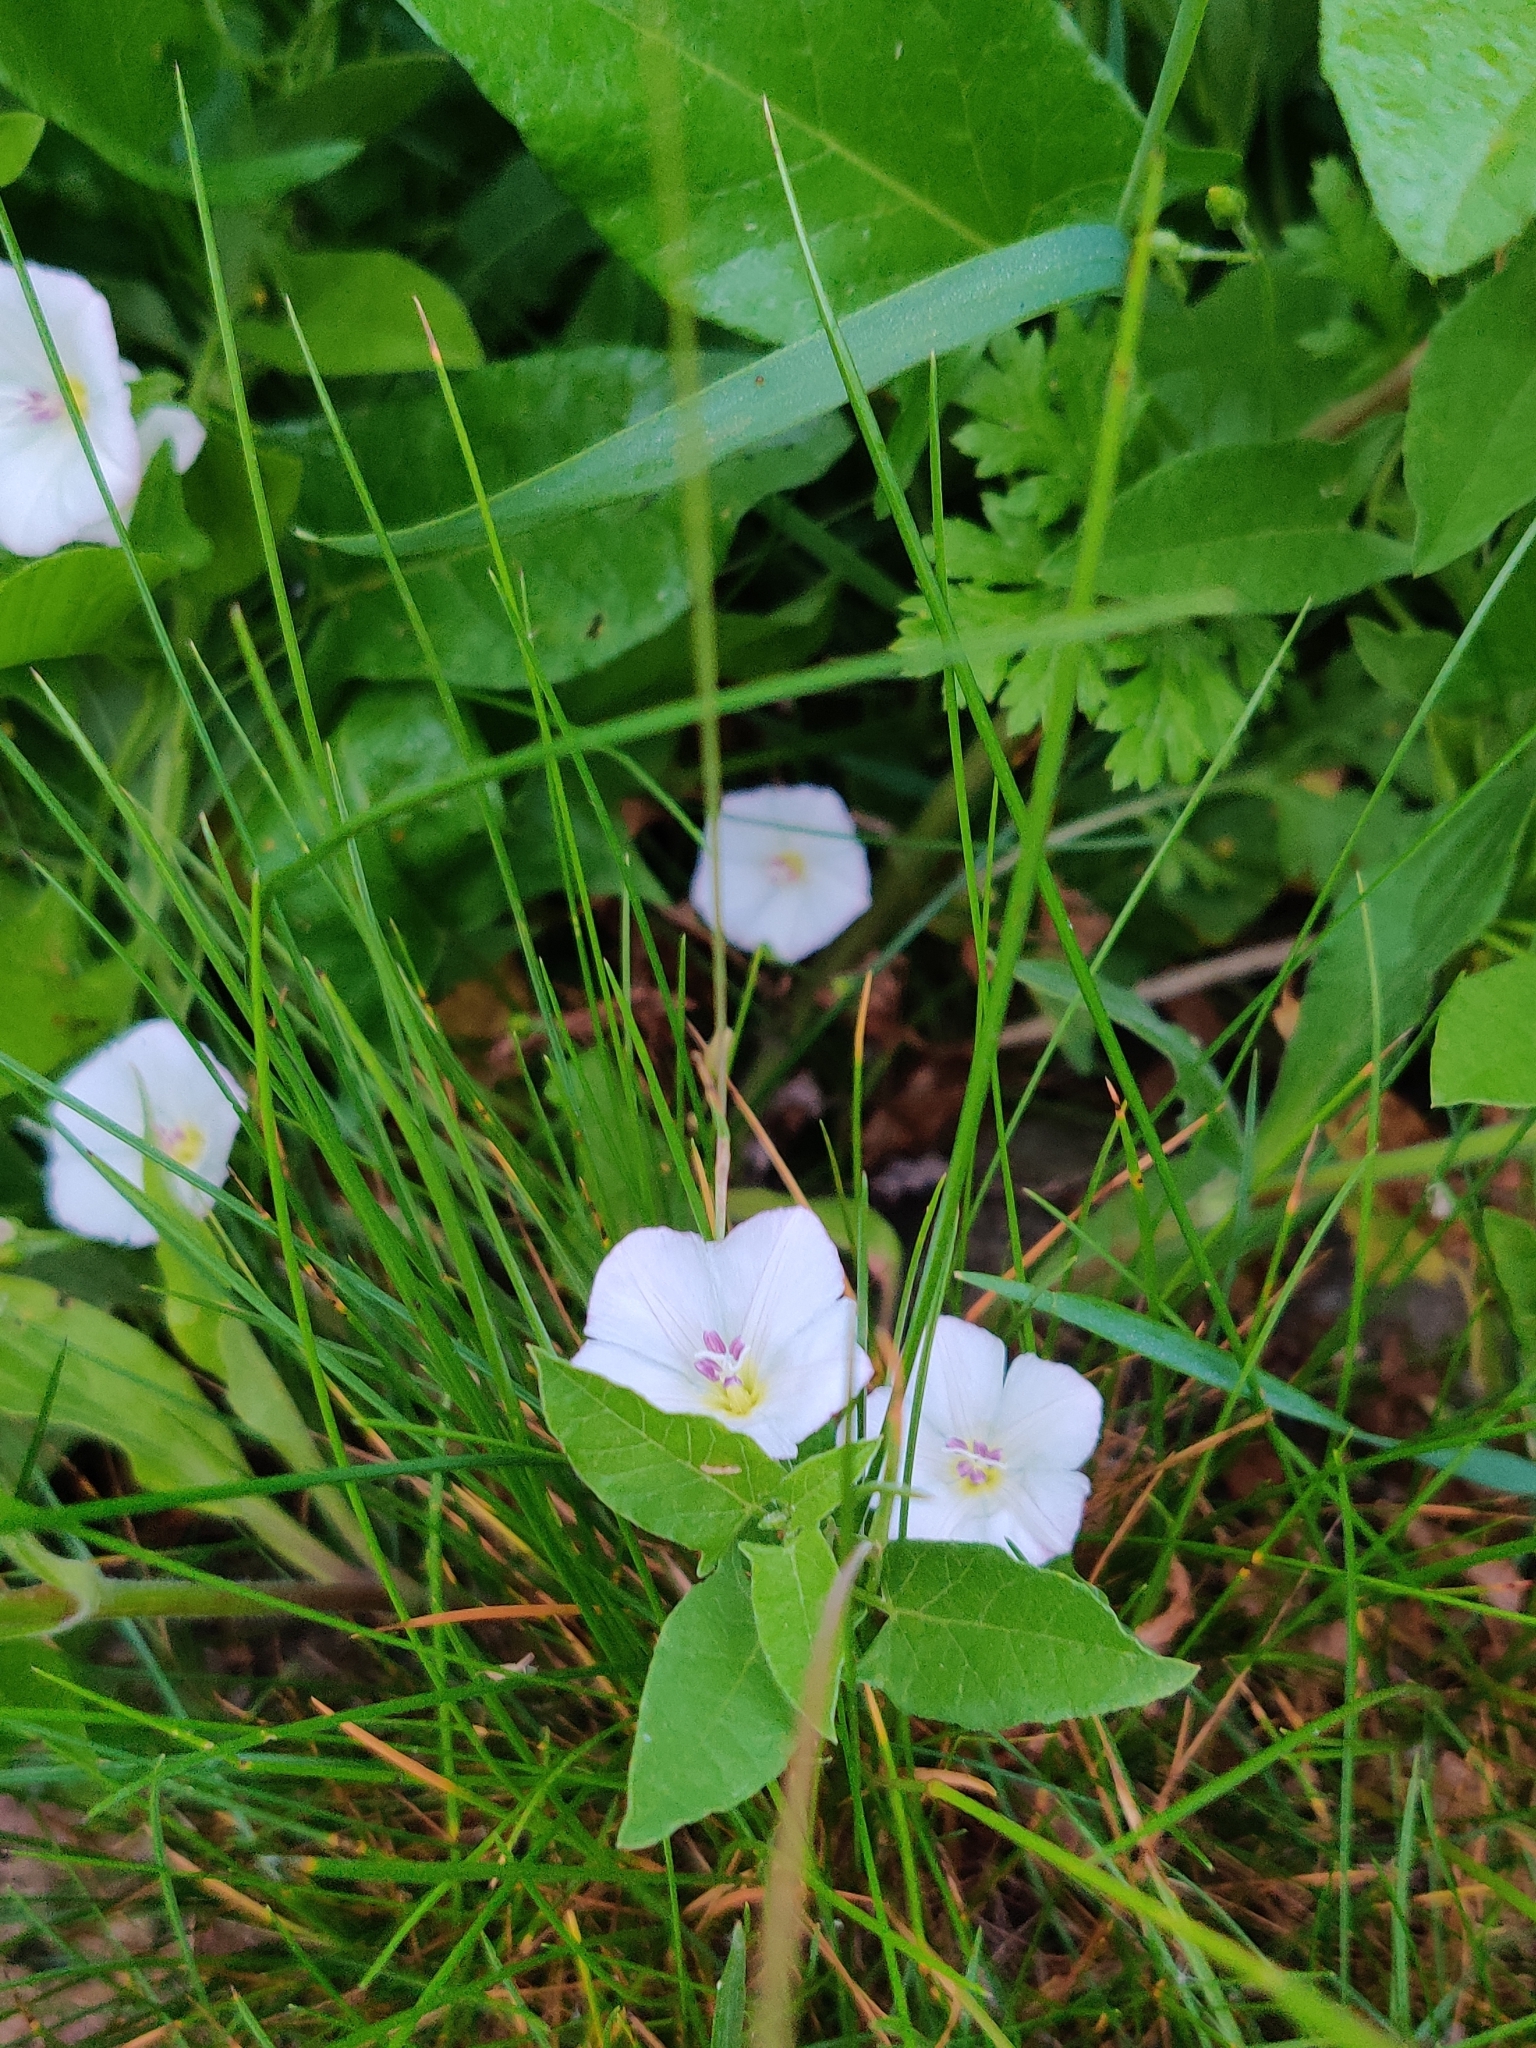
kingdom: Plantae
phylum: Tracheophyta
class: Magnoliopsida
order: Solanales
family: Convolvulaceae
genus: Convolvulus
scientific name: Convolvulus arvensis
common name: Field bindweed
